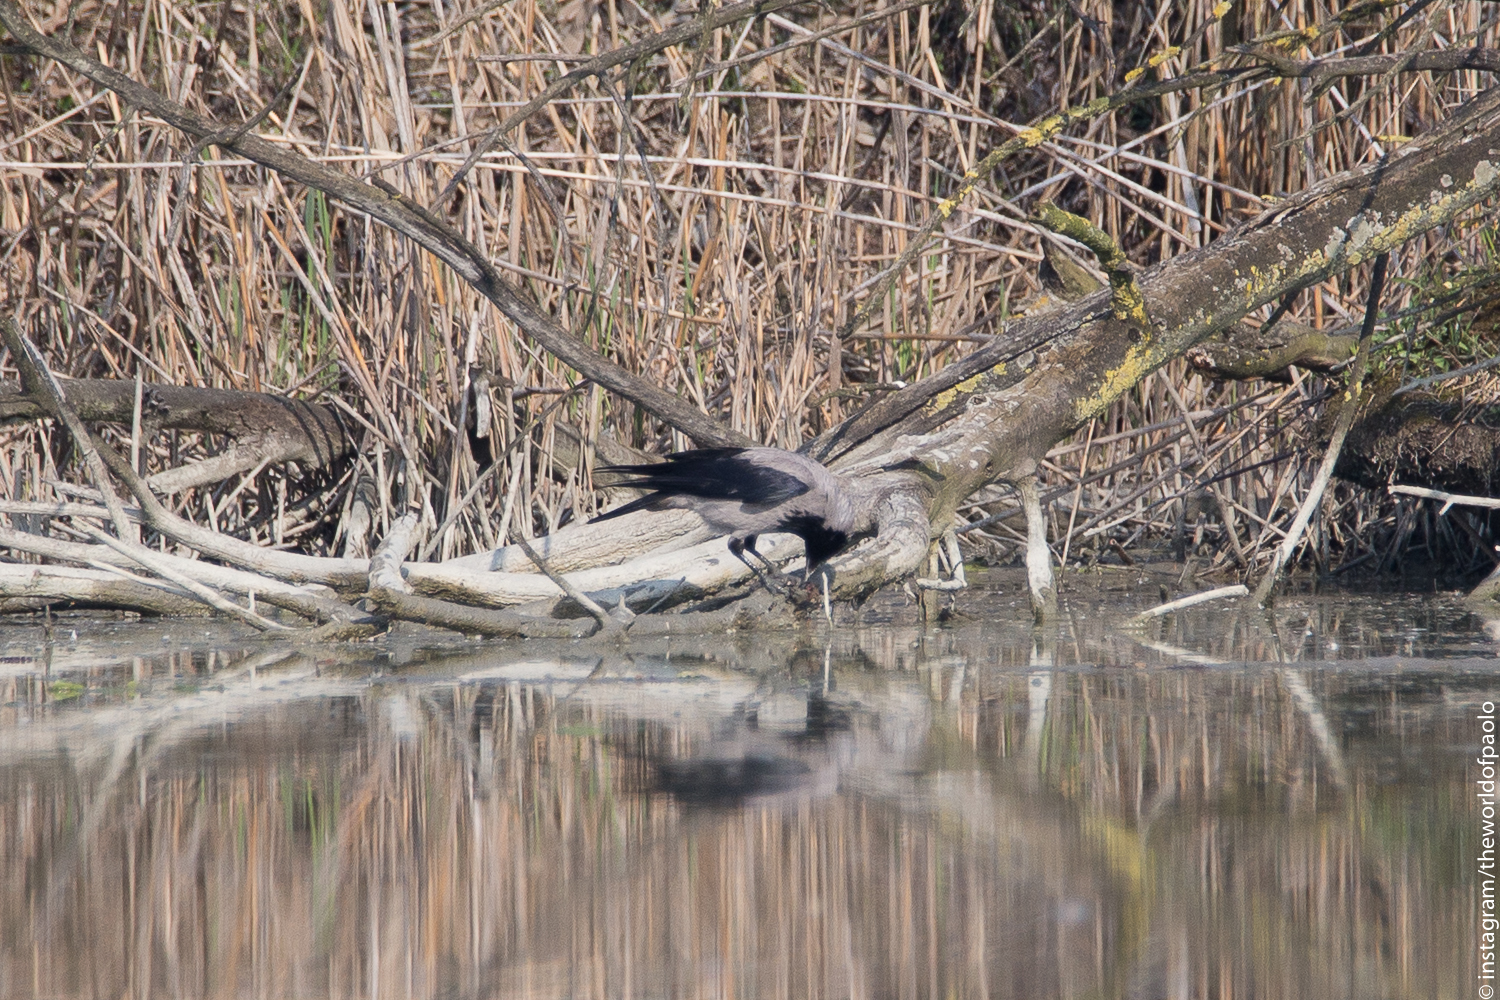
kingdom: Animalia
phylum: Chordata
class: Aves
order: Passeriformes
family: Corvidae
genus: Corvus
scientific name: Corvus cornix
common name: Hooded crow
